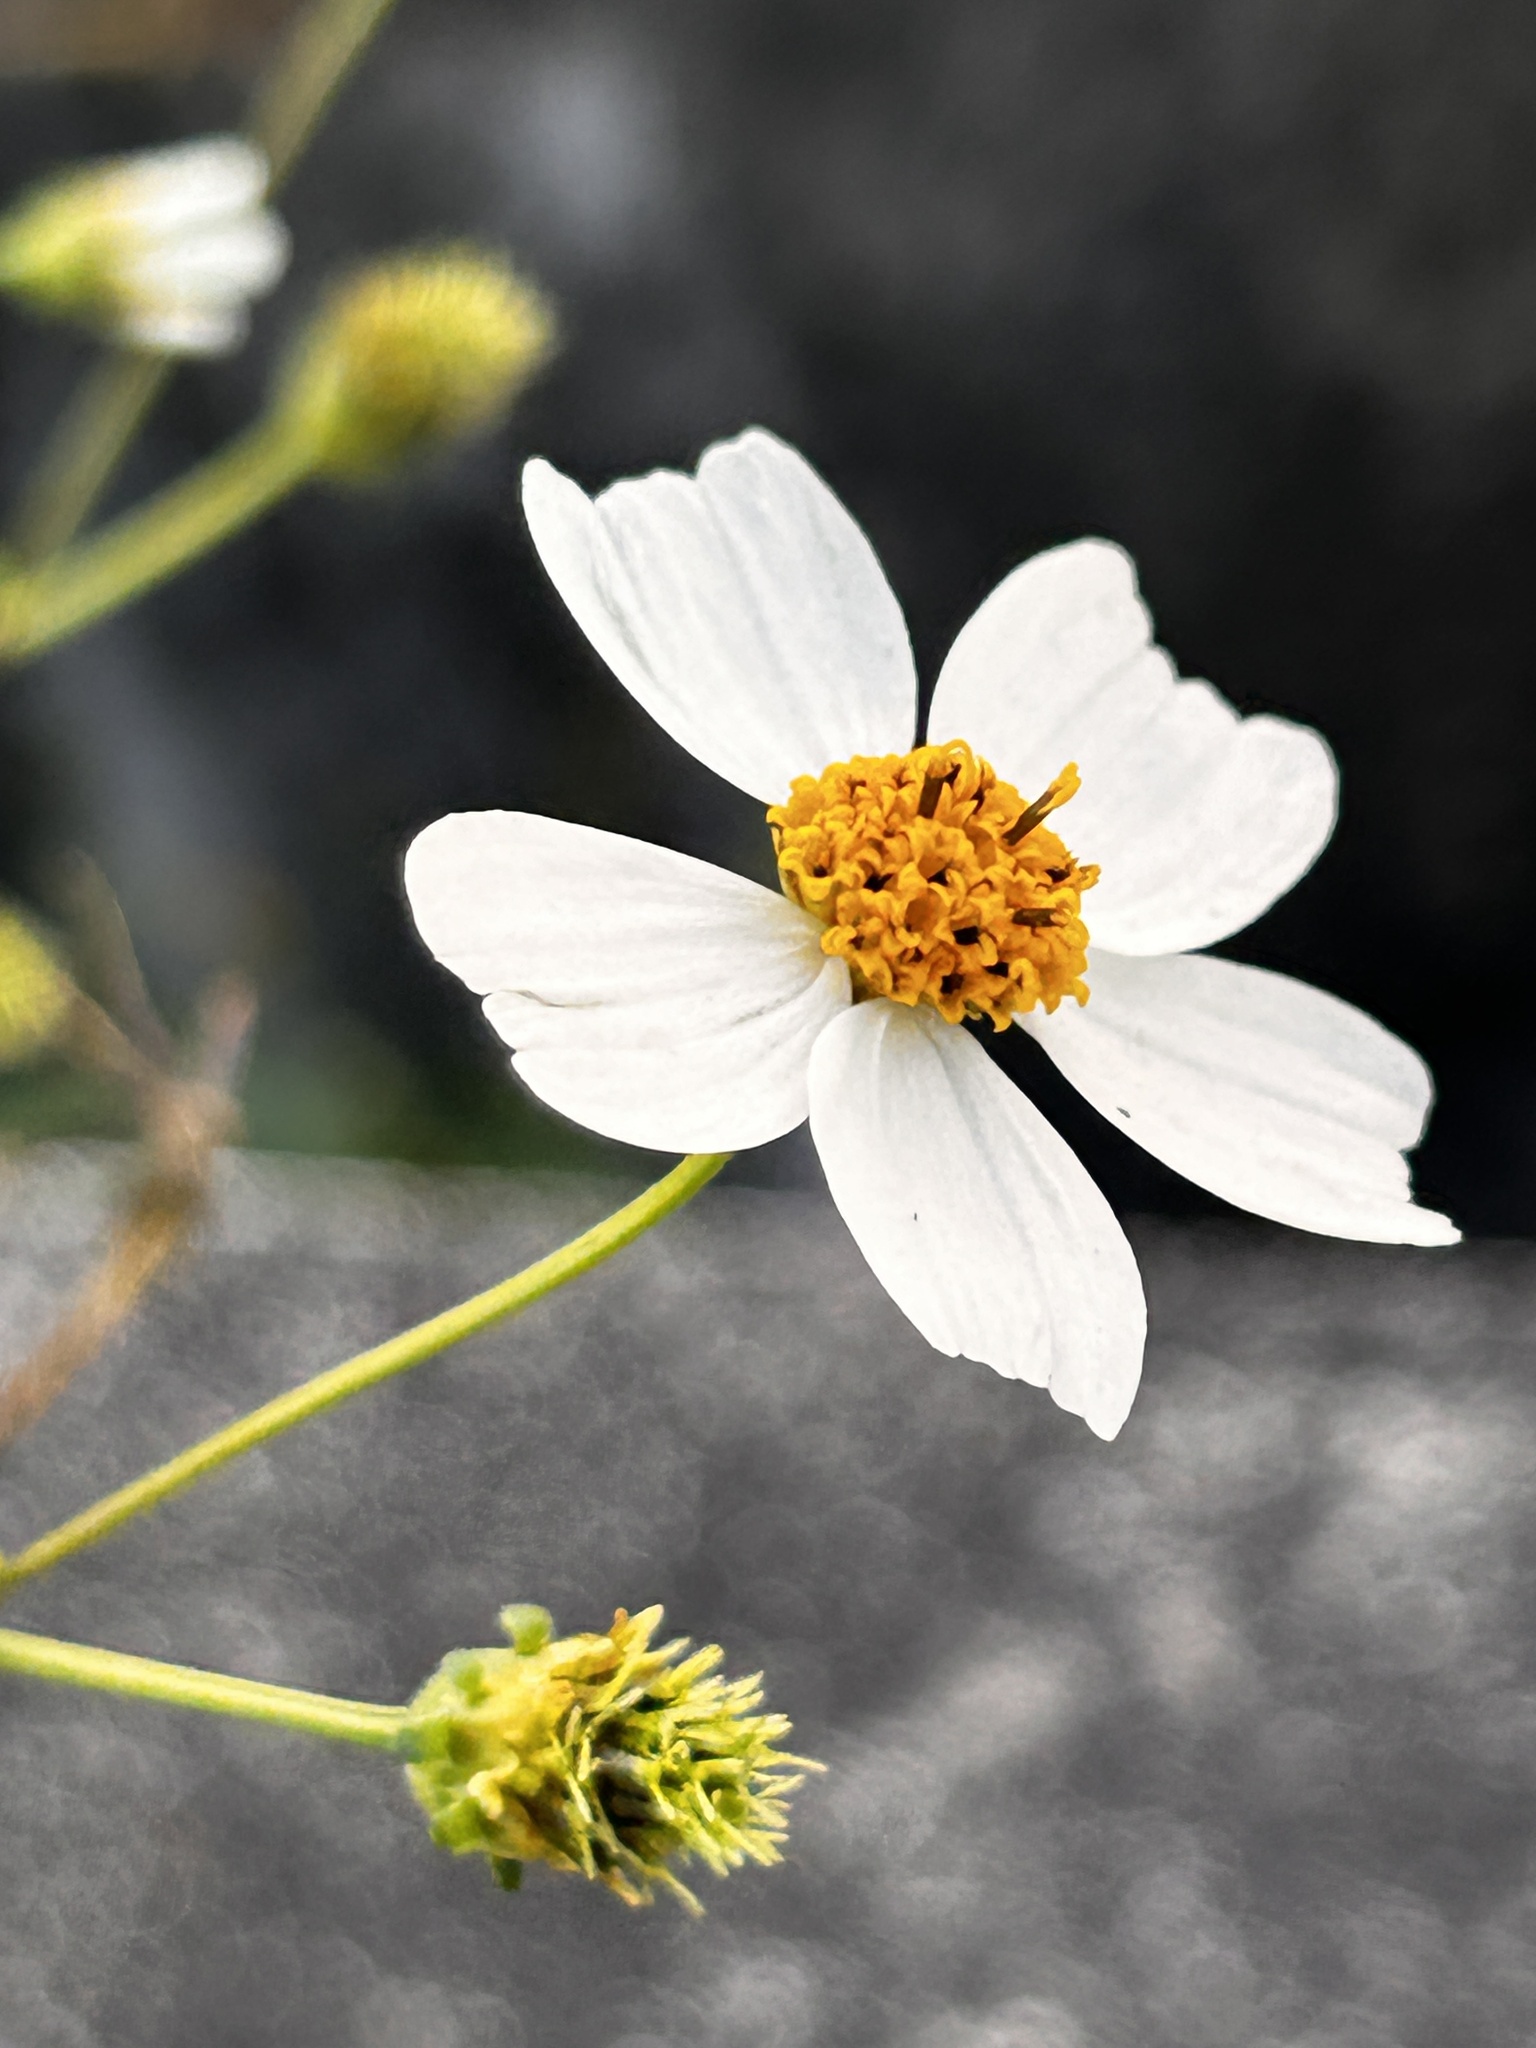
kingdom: Plantae
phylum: Tracheophyta
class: Magnoliopsida
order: Asterales
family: Asteraceae
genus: Bidens
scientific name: Bidens alba
